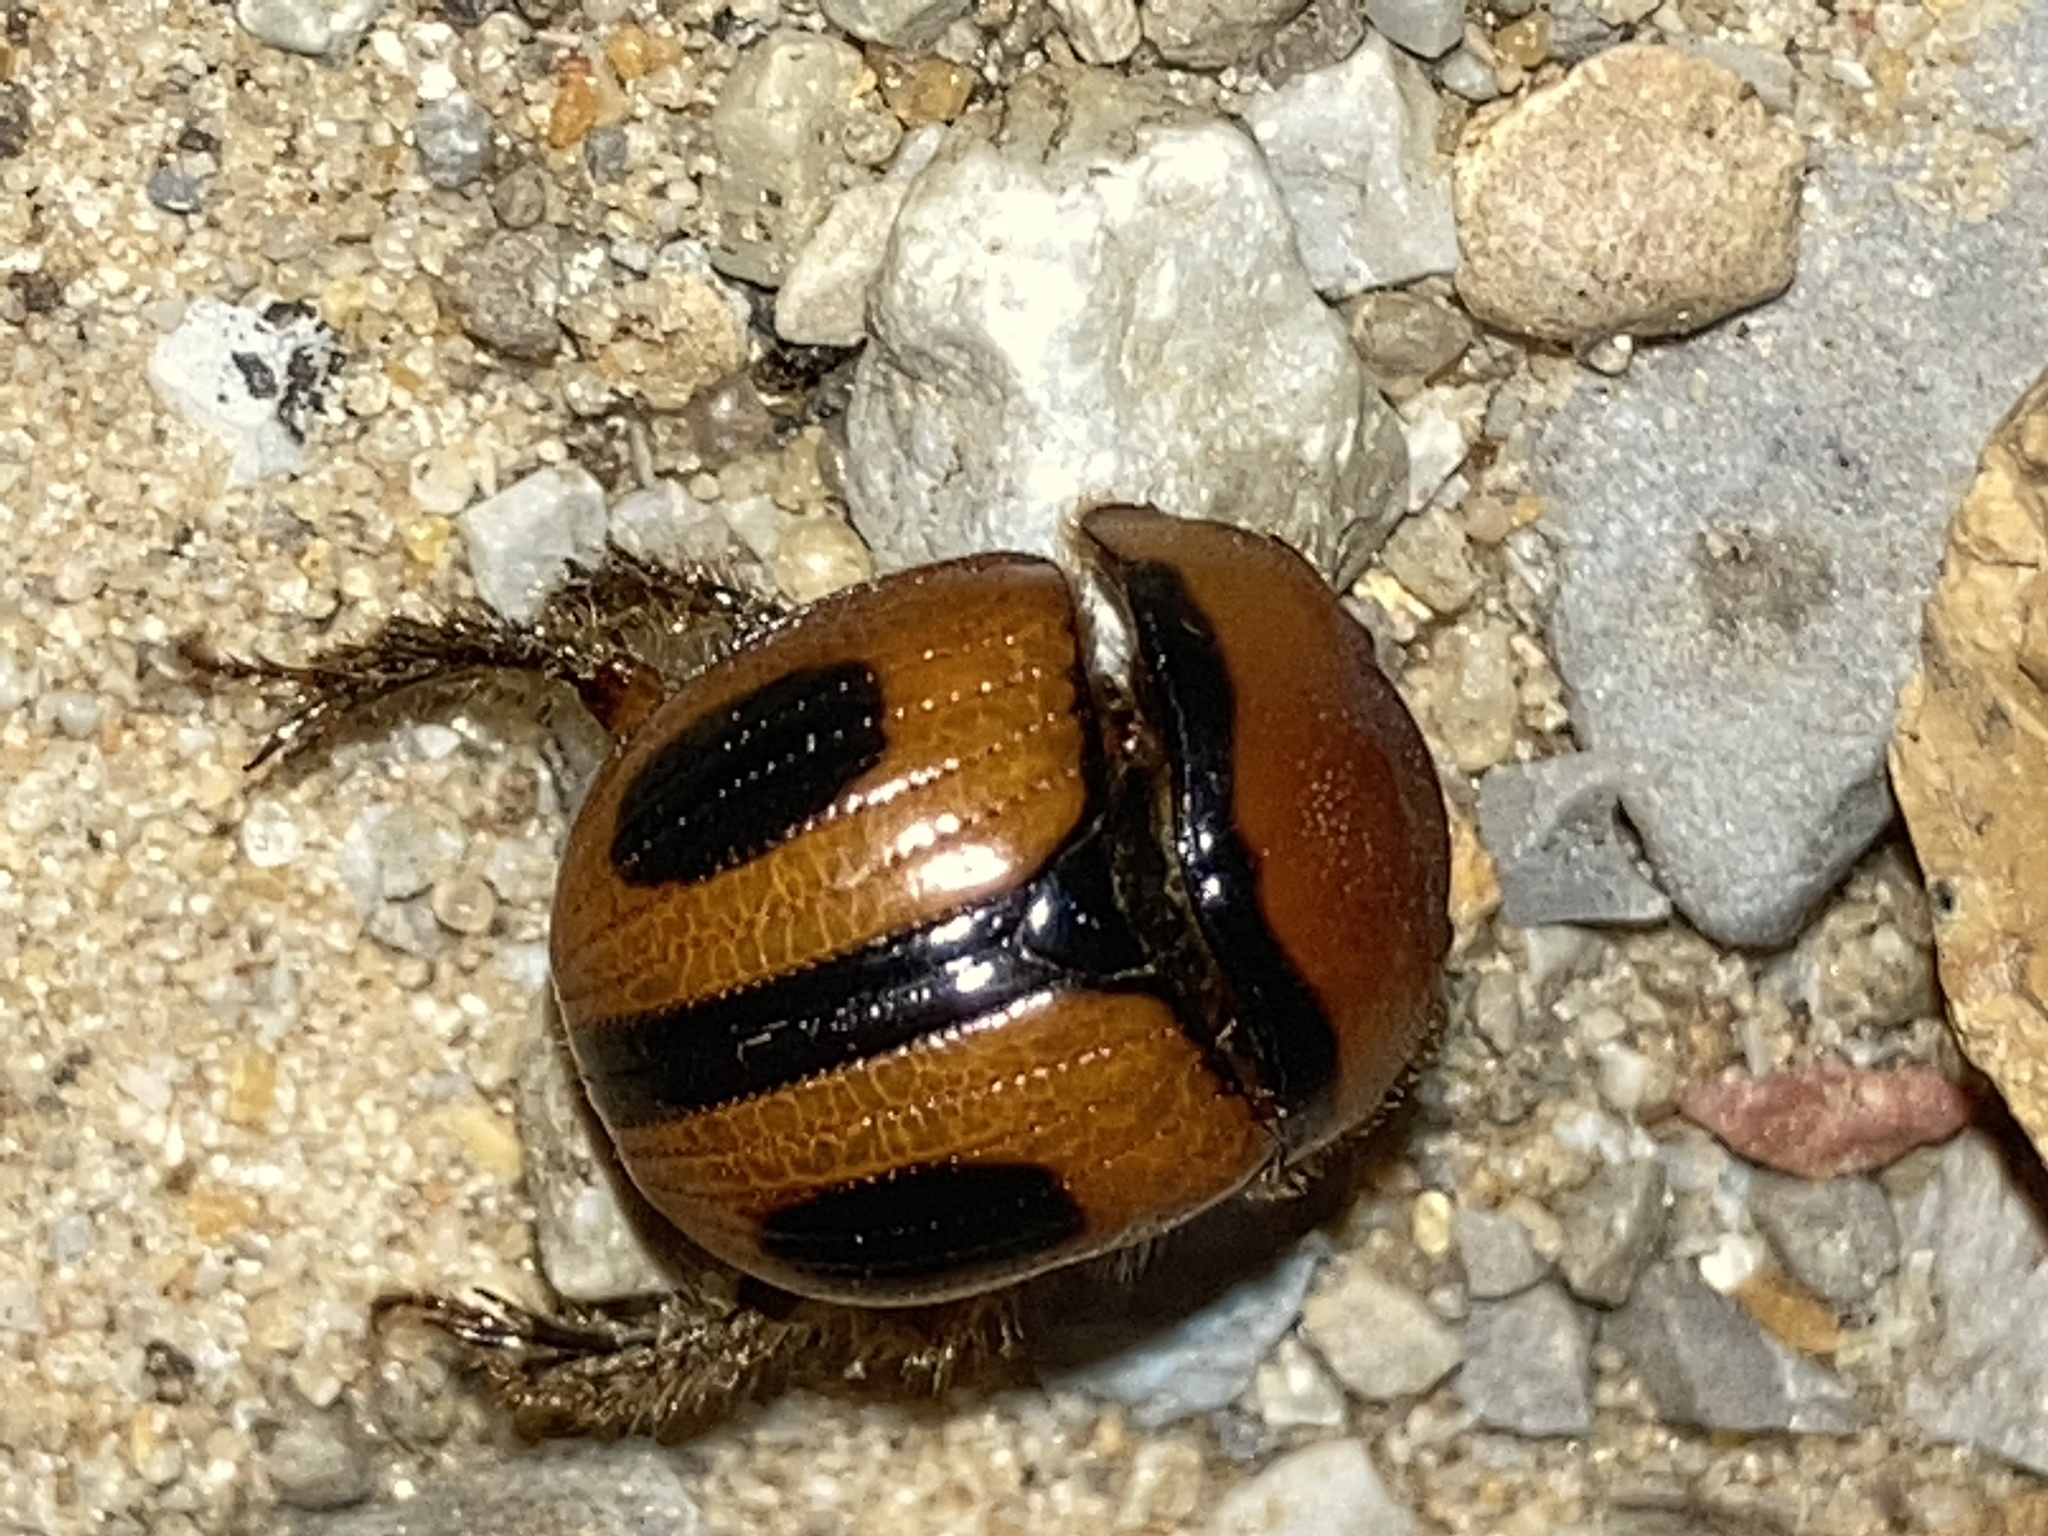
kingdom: Animalia
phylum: Arthropoda
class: Insecta
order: Coleoptera
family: Geotrupidae
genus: Bolbocerosoma
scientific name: Bolbocerosoma confusum
